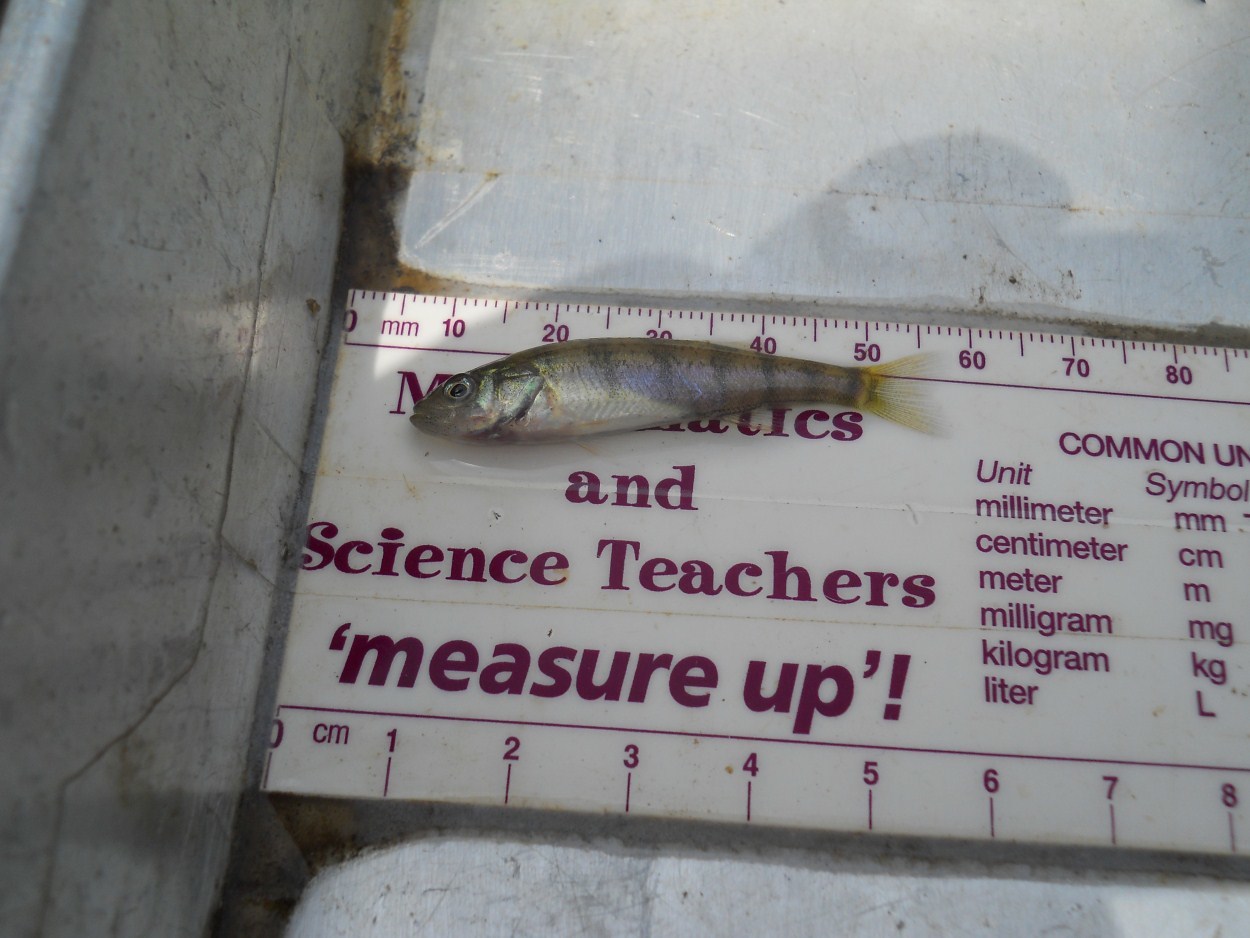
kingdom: Animalia
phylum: Chordata
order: Perciformes
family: Percidae
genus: Perca
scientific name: Perca flavescens
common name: Yellow perch
